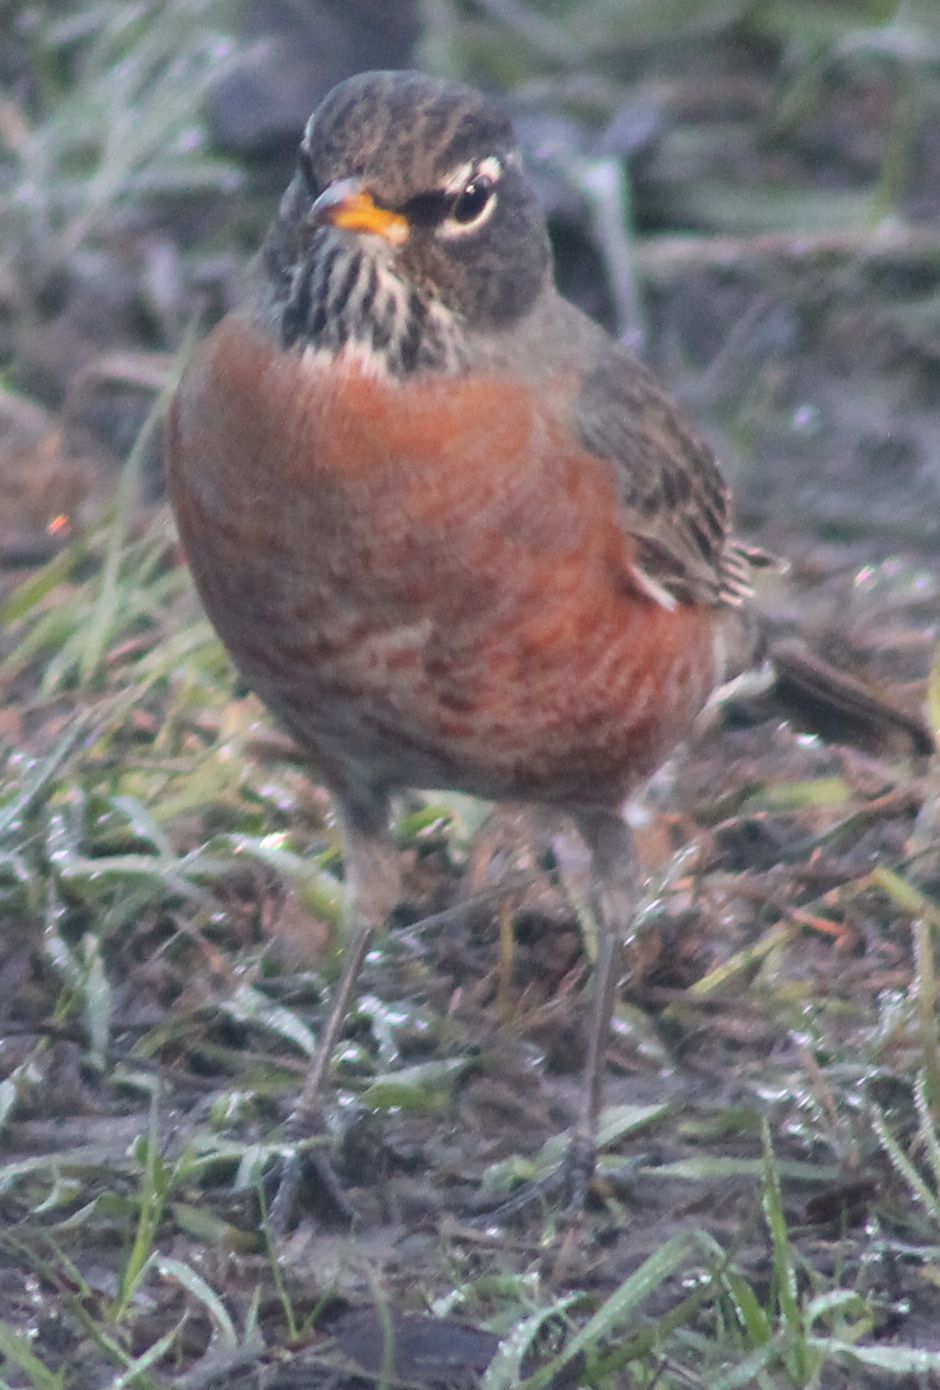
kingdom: Animalia
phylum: Chordata
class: Aves
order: Passeriformes
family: Turdidae
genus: Turdus
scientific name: Turdus migratorius
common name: American robin
